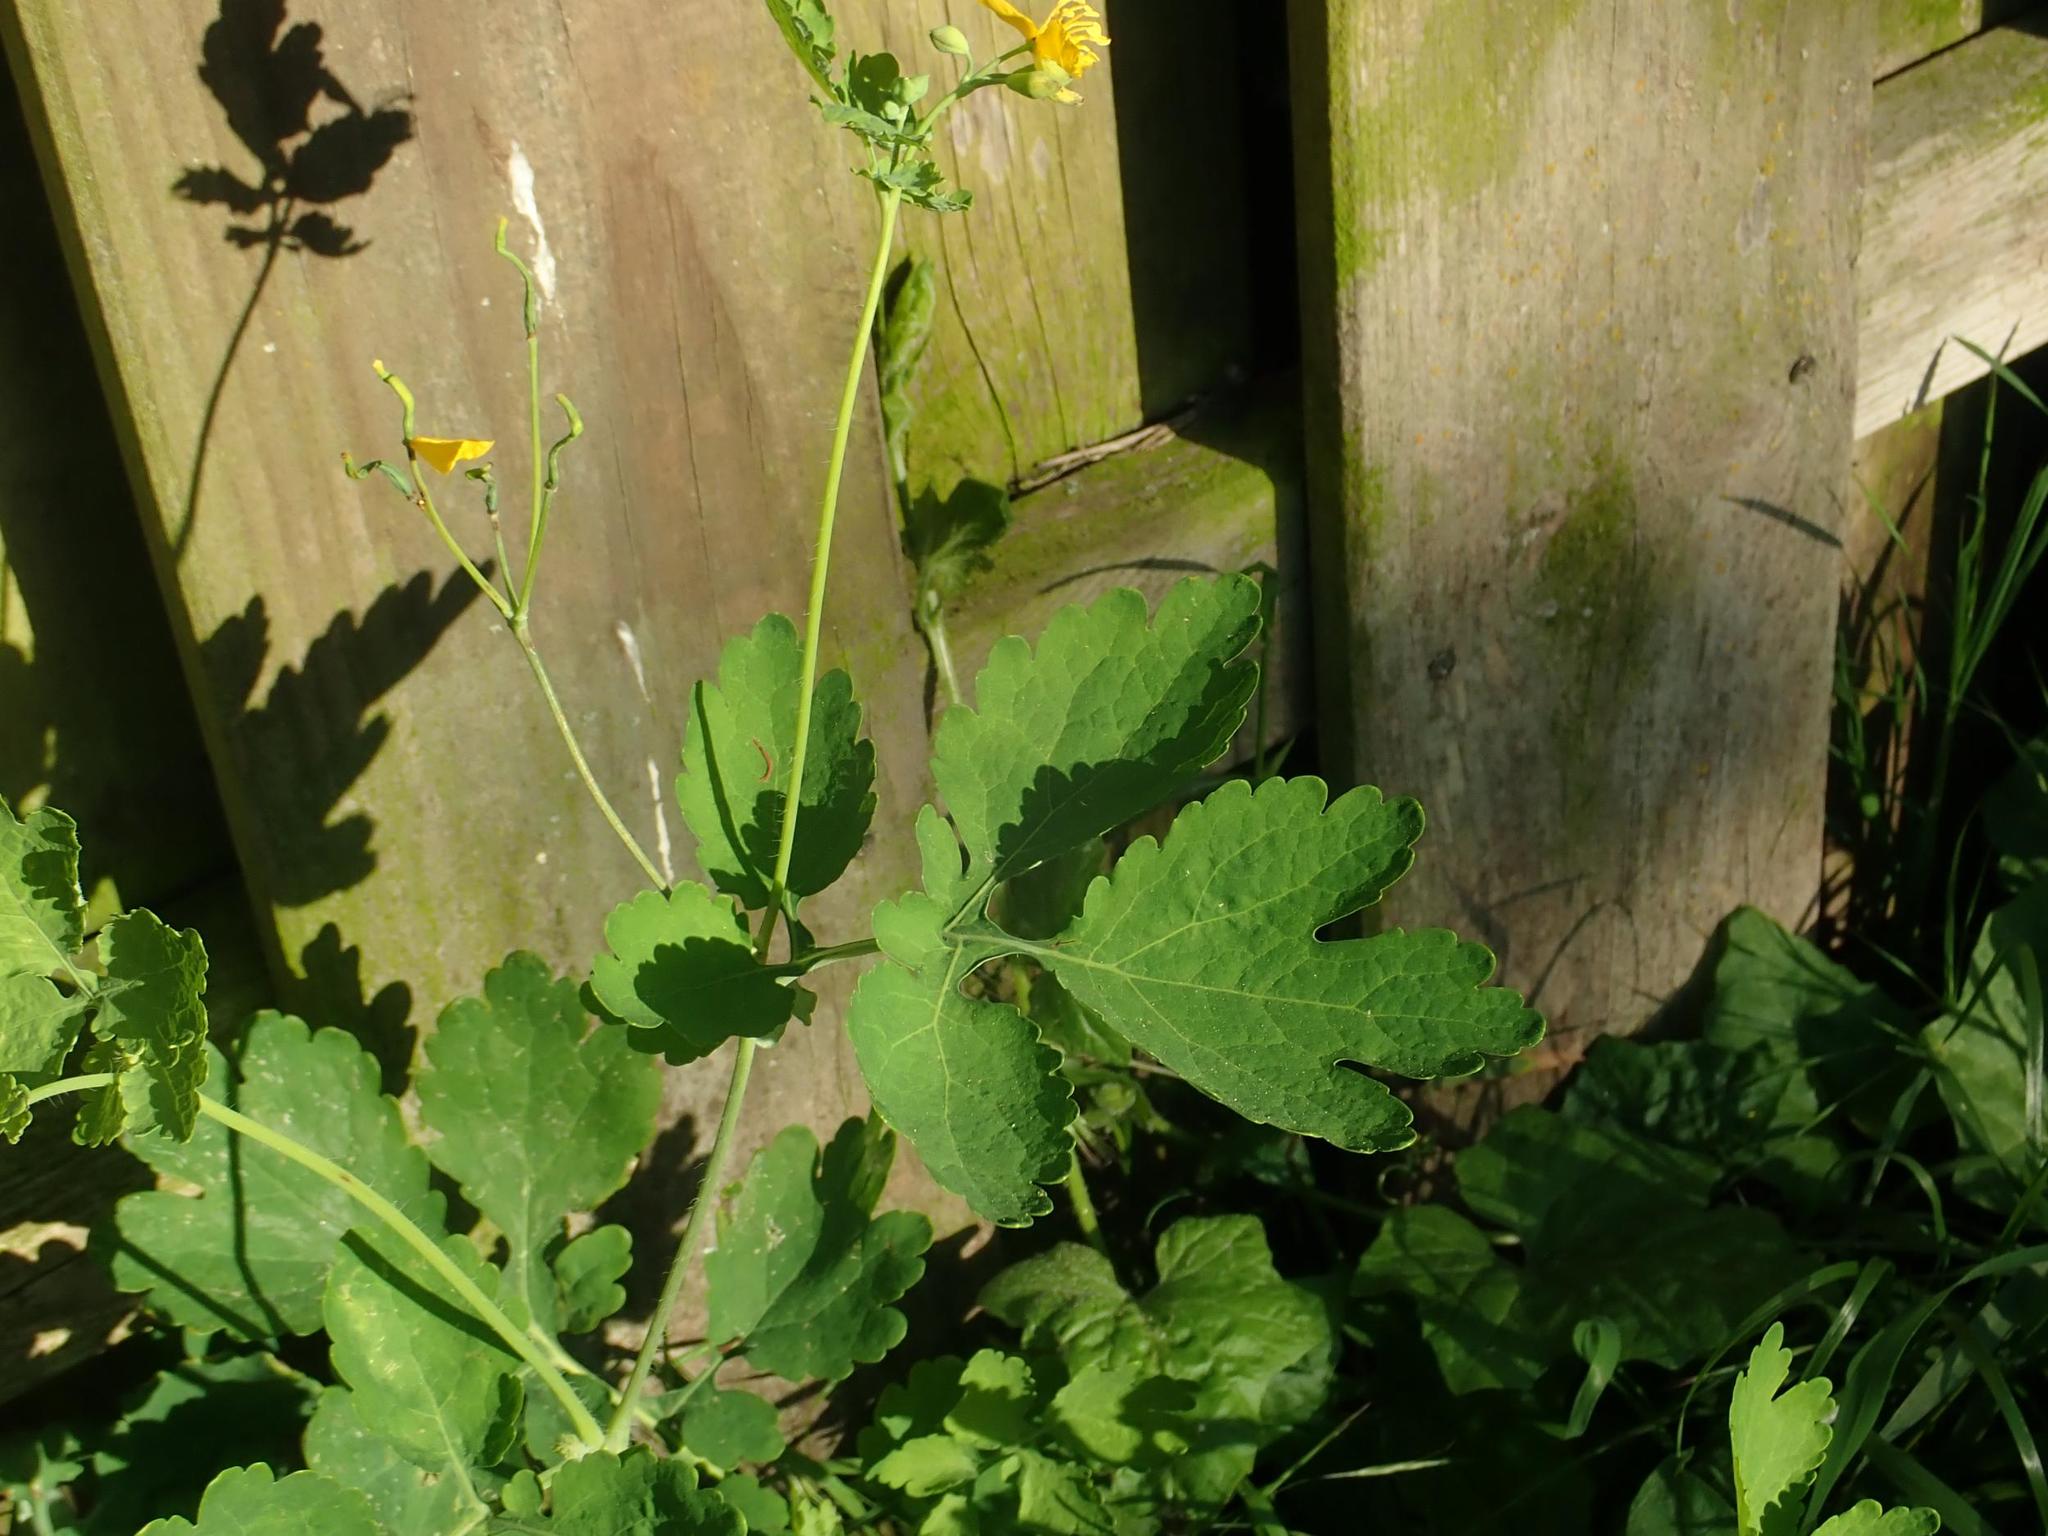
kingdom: Plantae
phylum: Tracheophyta
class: Magnoliopsida
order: Ranunculales
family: Papaveraceae
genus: Chelidonium
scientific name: Chelidonium majus
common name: Greater celandine
